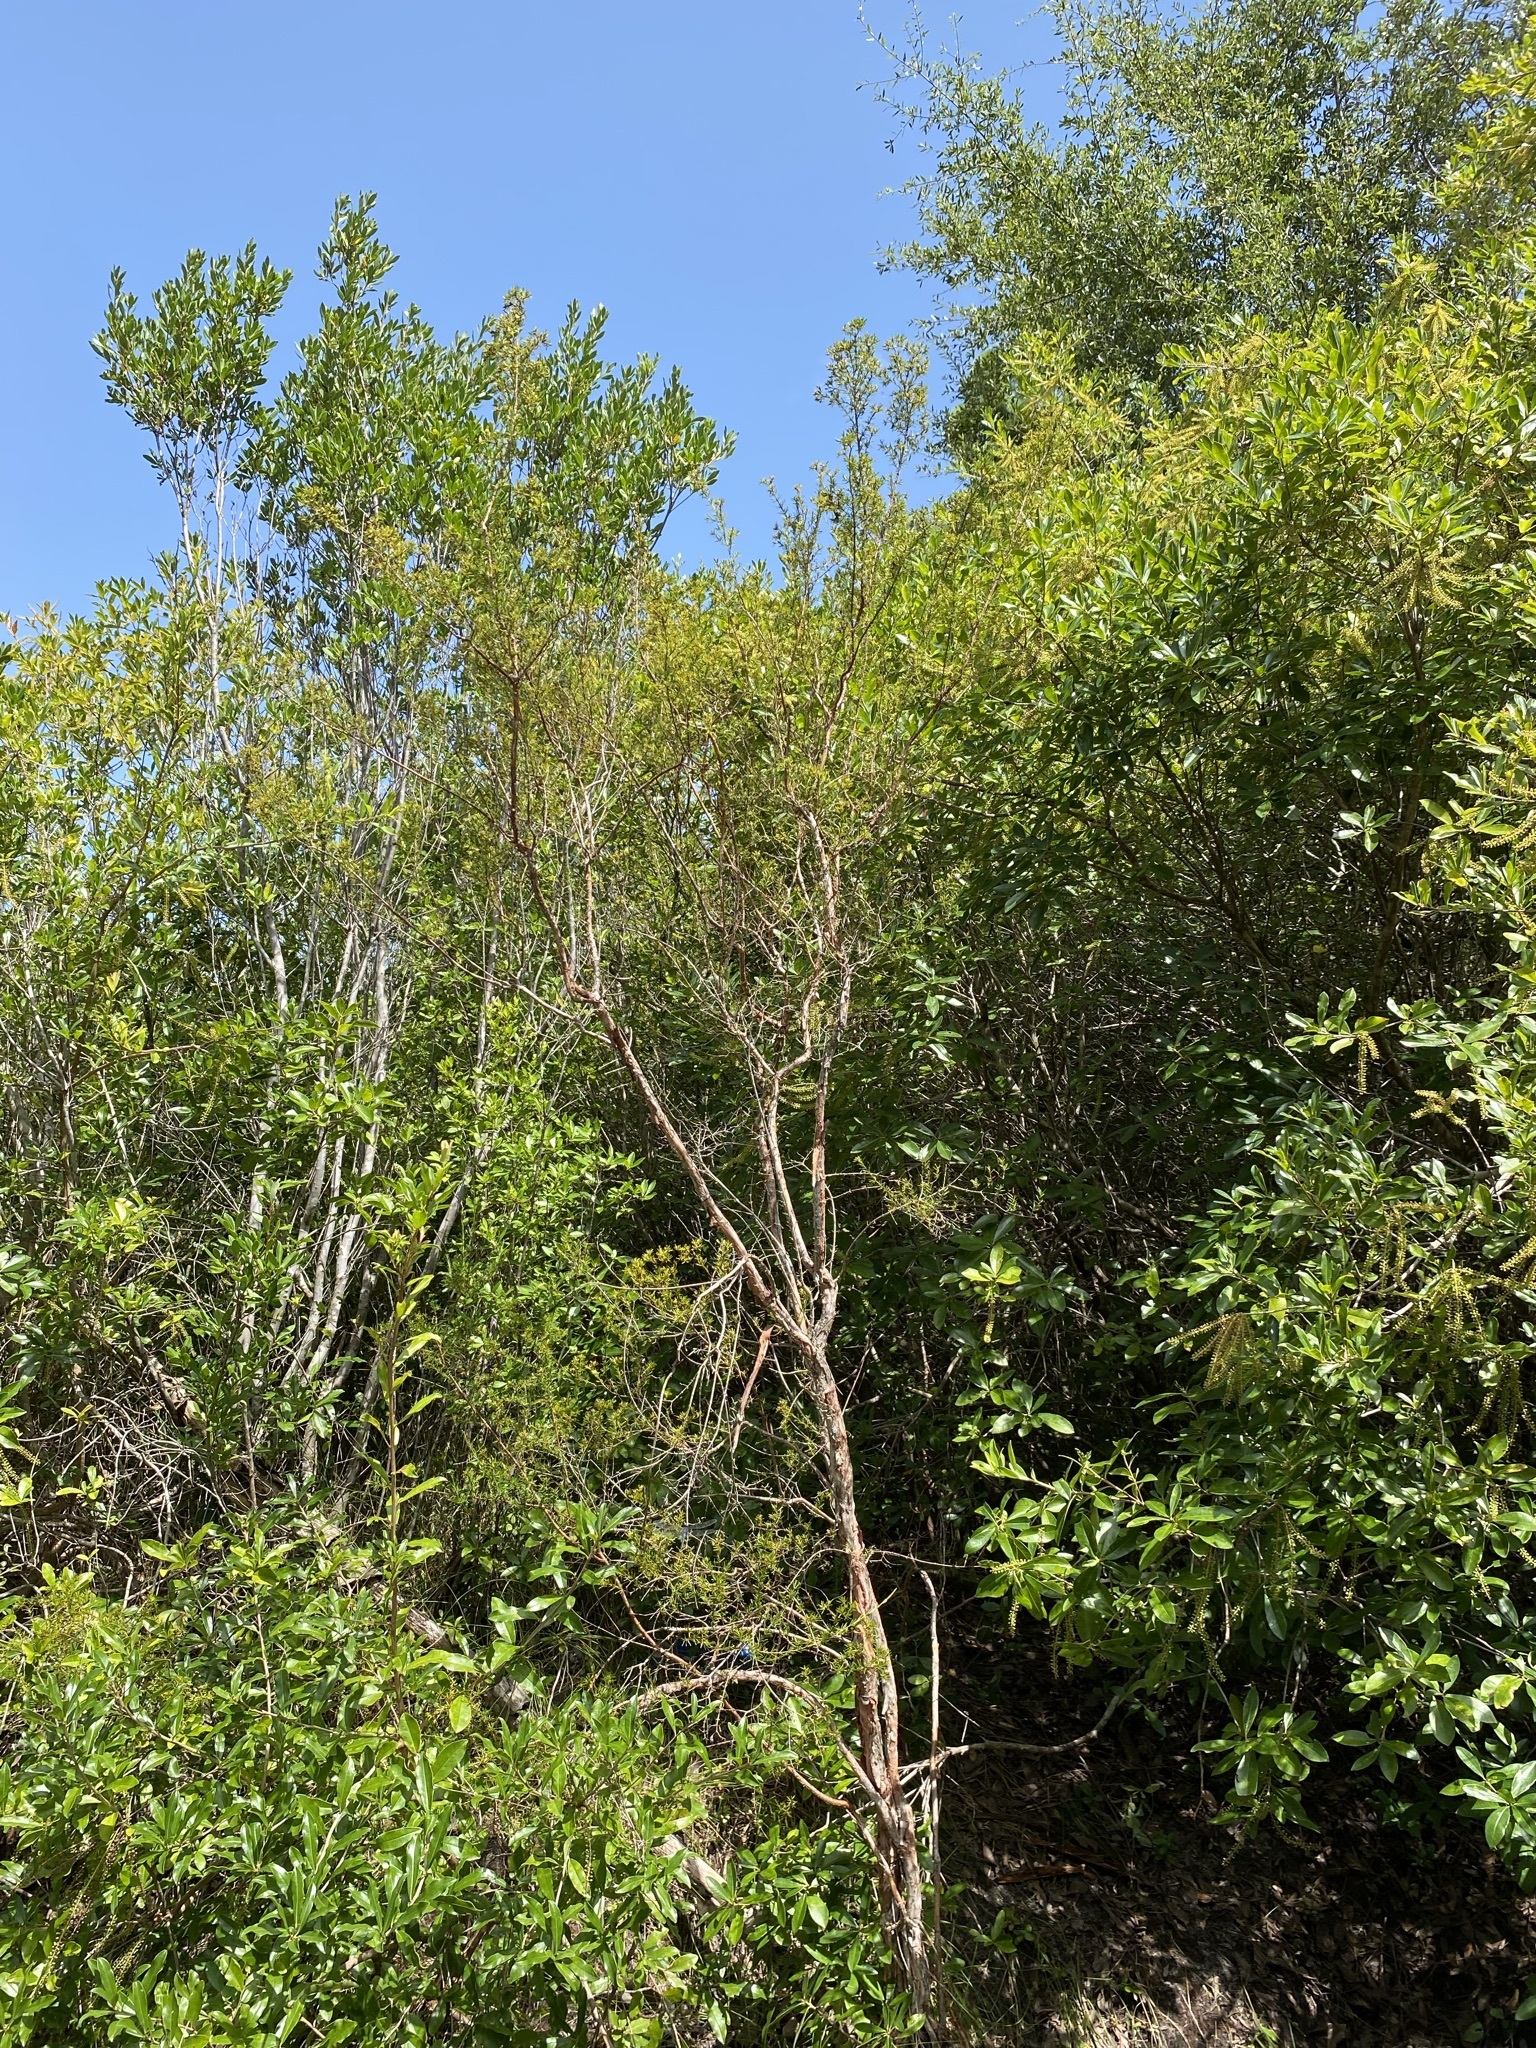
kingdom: Plantae
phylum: Tracheophyta
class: Magnoliopsida
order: Malpighiales
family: Hypericaceae
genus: Hypericum
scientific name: Hypericum chapmanii
